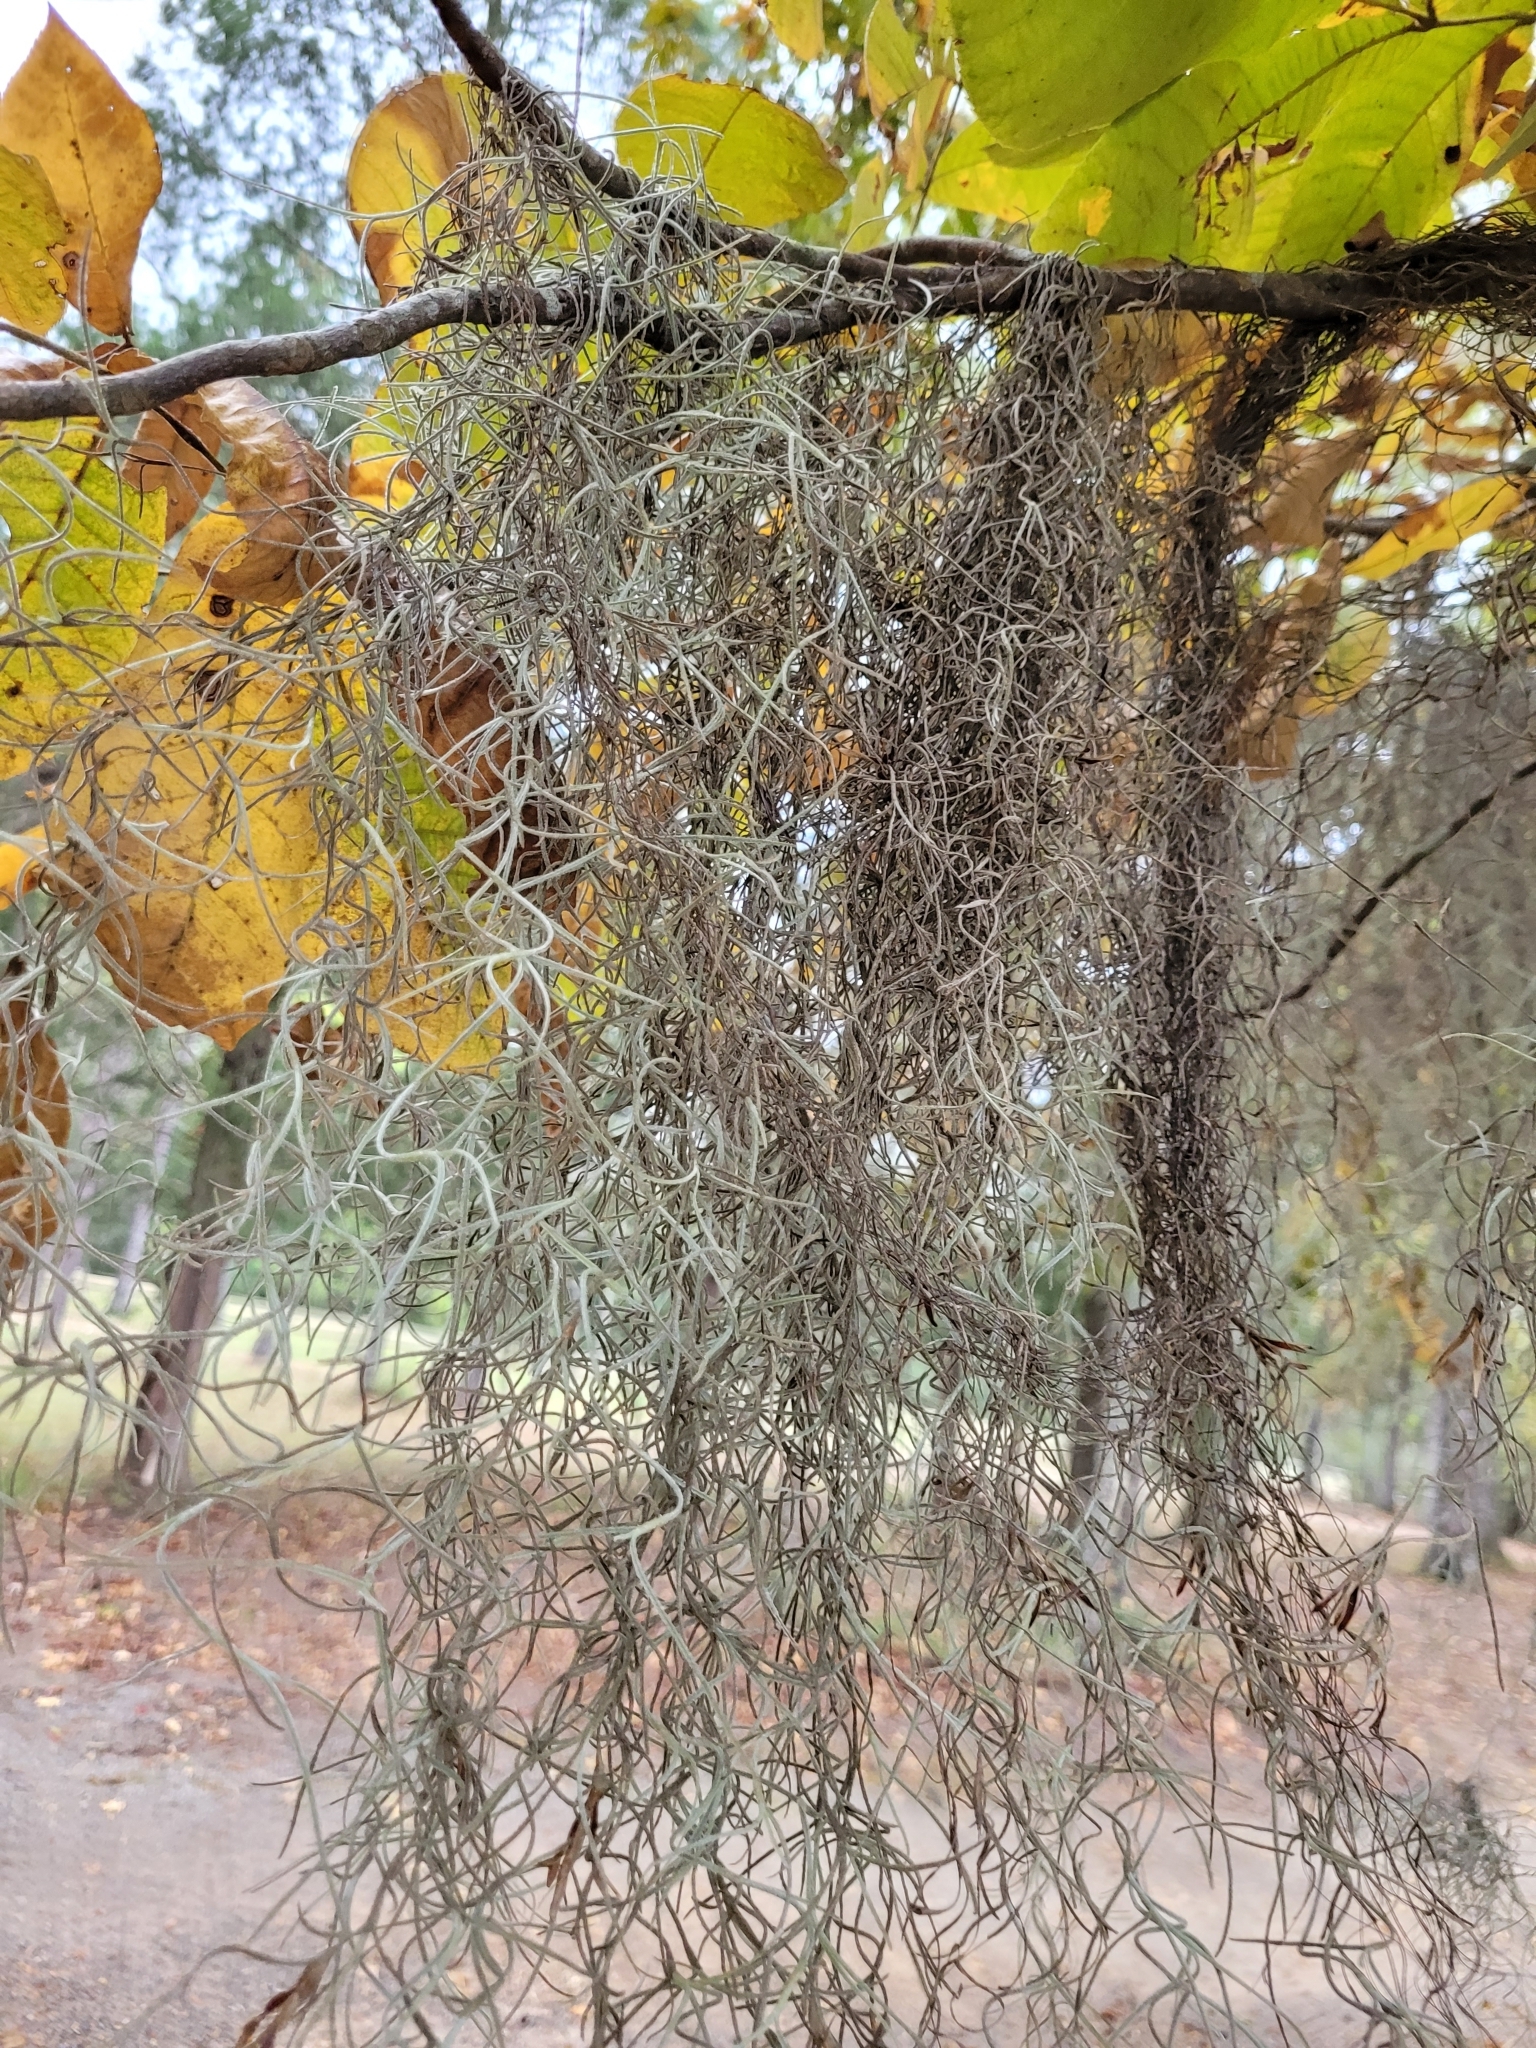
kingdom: Plantae
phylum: Tracheophyta
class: Liliopsida
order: Poales
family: Bromeliaceae
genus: Tillandsia
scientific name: Tillandsia usneoides
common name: Spanish moss
